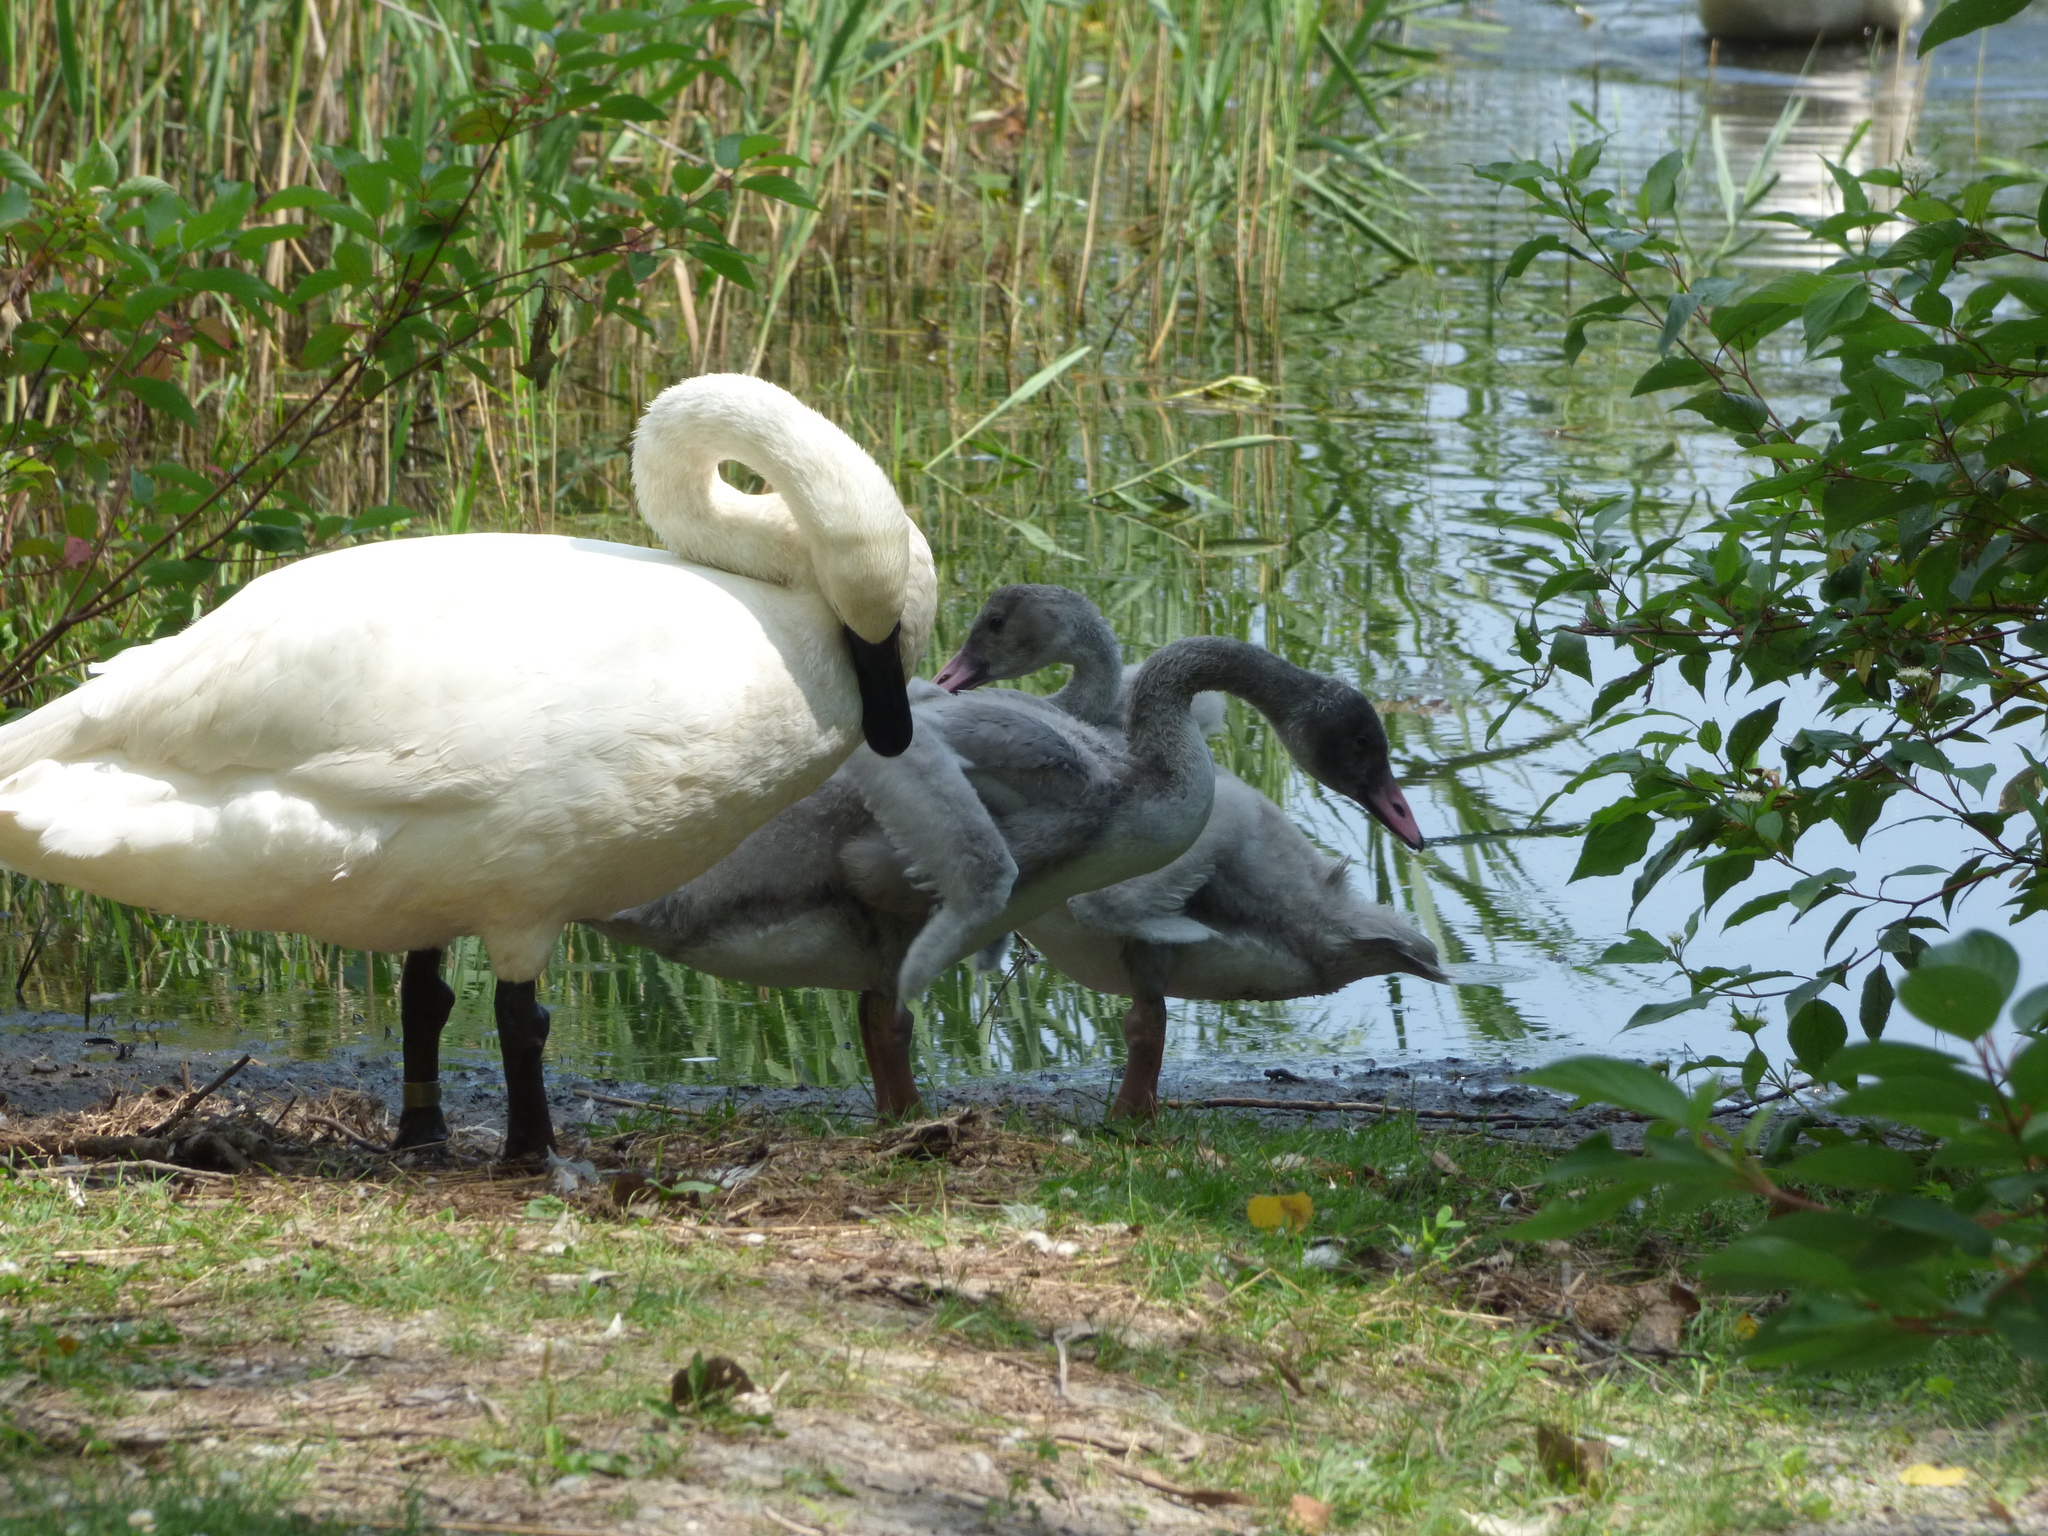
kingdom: Animalia
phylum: Chordata
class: Aves
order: Anseriformes
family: Anatidae
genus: Cygnus
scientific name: Cygnus buccinator
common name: Trumpeter swan
